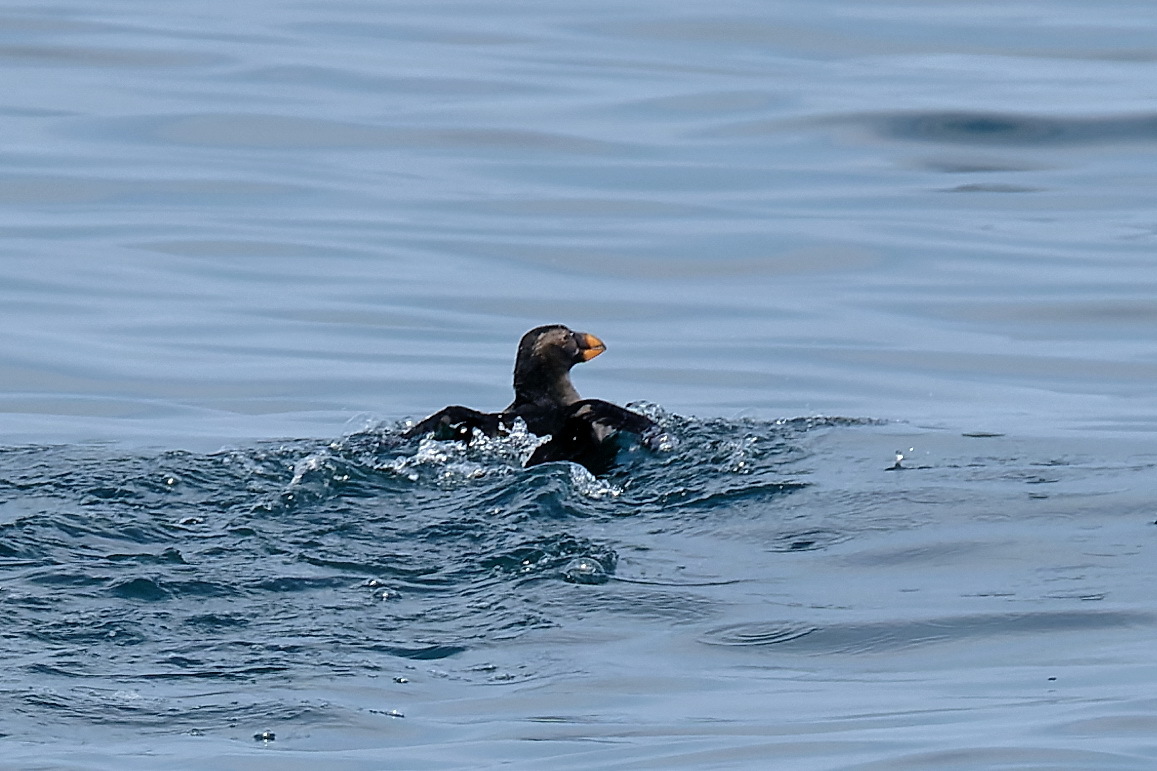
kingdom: Animalia
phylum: Chordata
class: Aves
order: Charadriiformes
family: Alcidae
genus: Fratercula
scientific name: Fratercula cirrhata
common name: Tufted puffin
